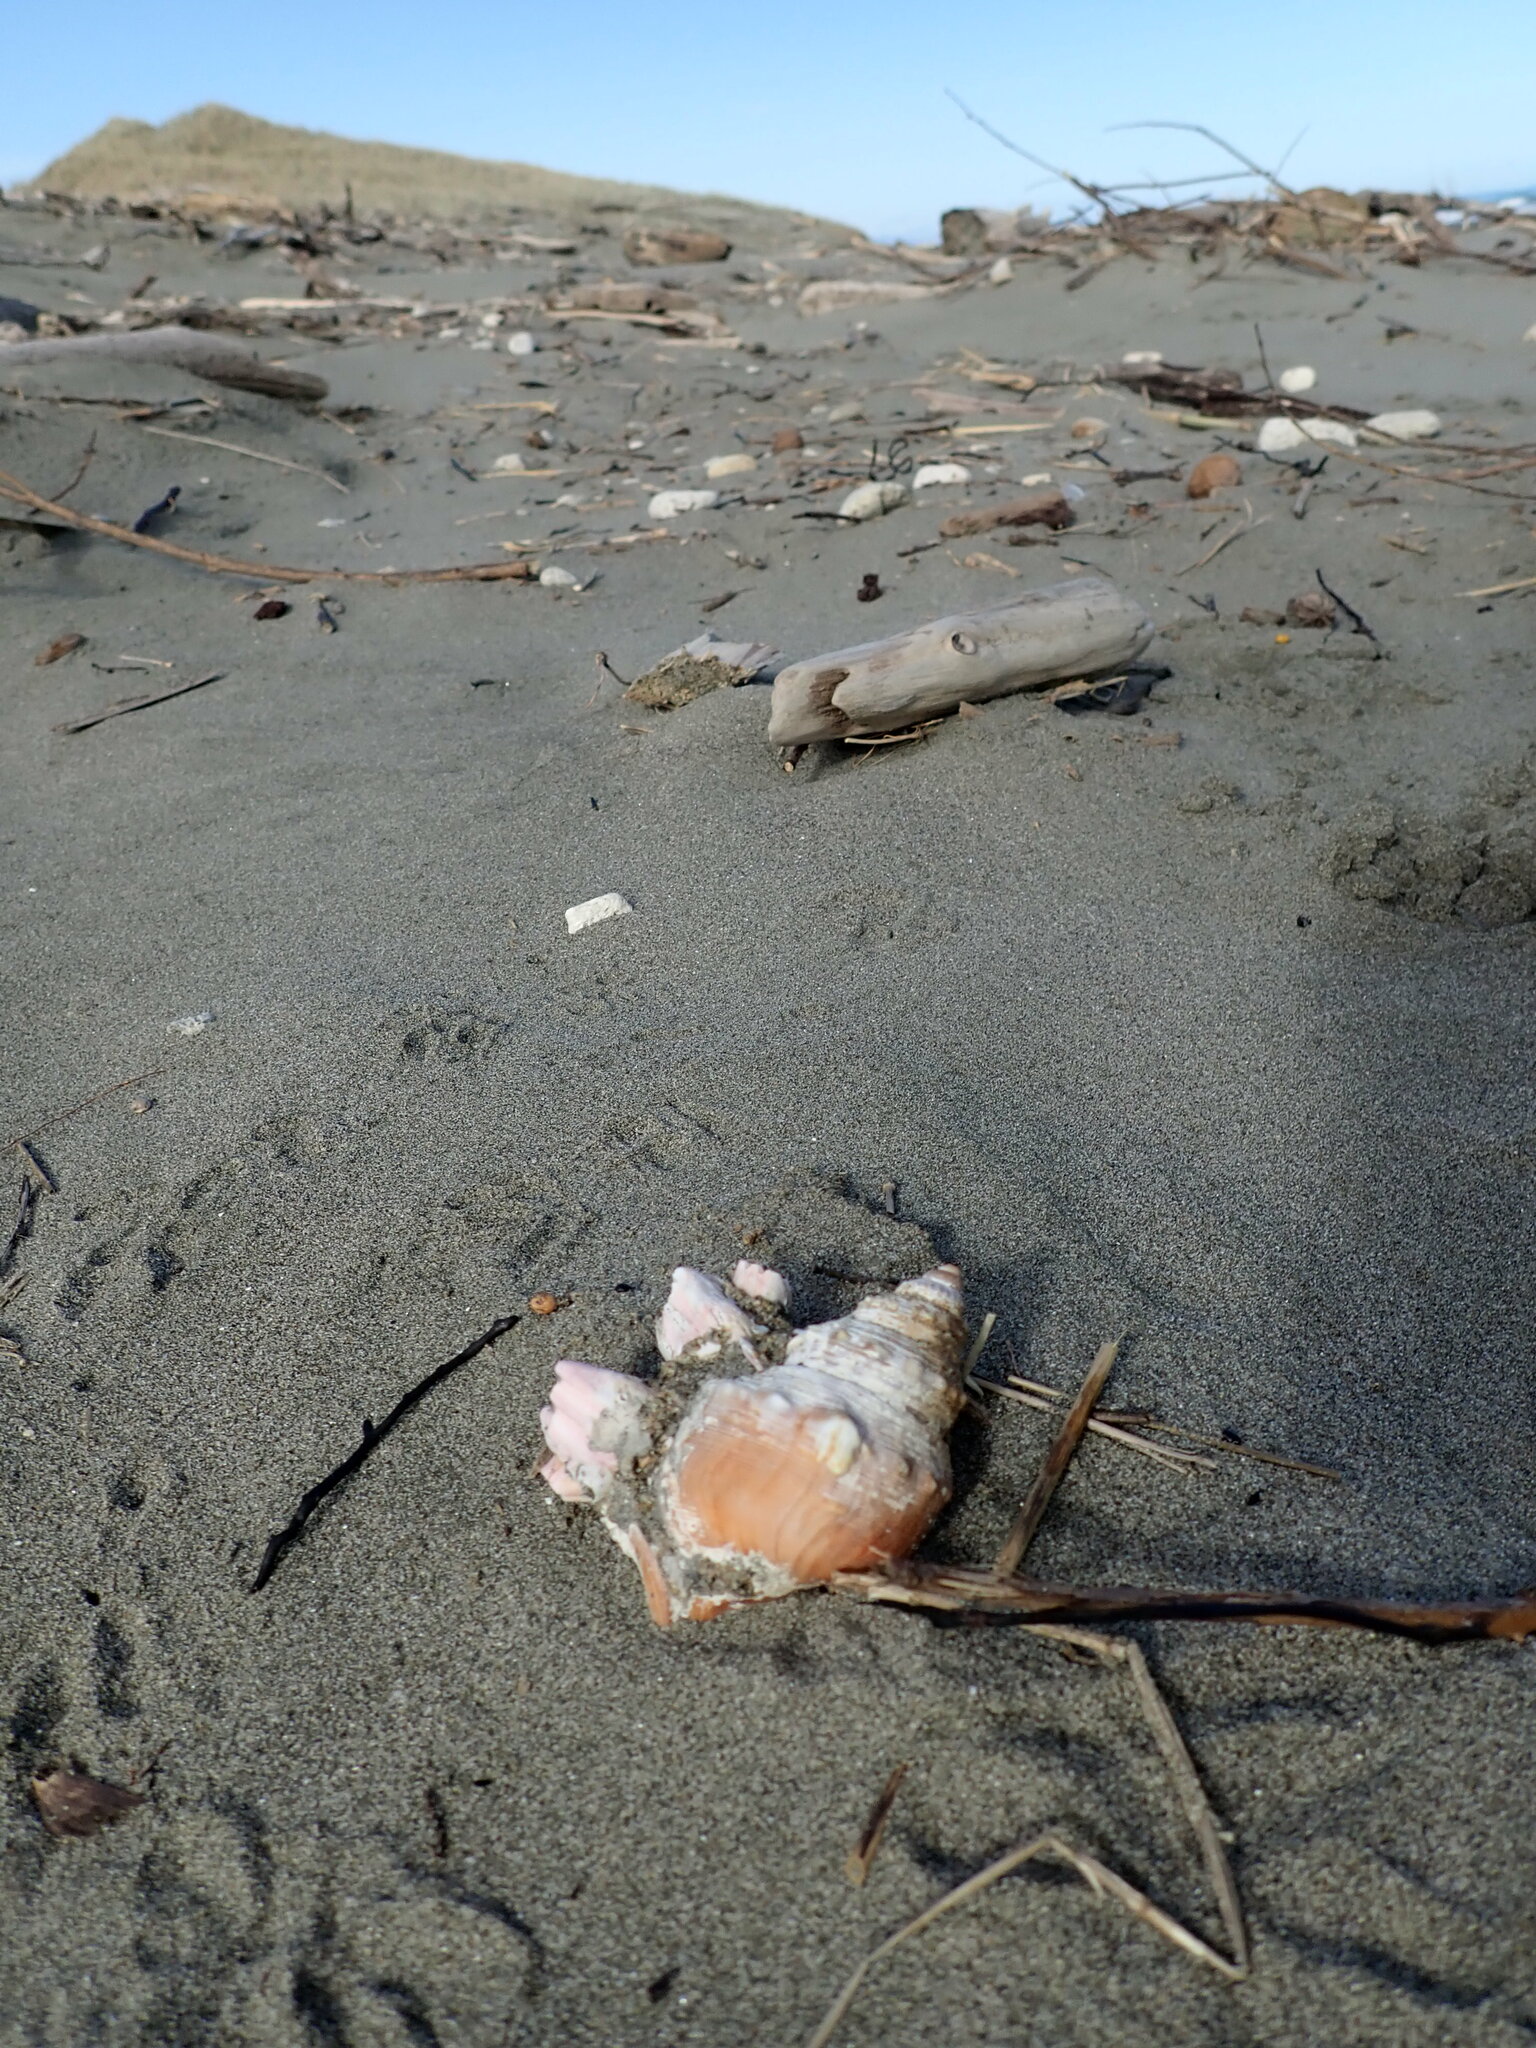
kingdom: Animalia
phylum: Arthropoda
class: Maxillopoda
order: Sessilia
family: Balanidae
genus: Notomegabalanus
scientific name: Notomegabalanus decorus
